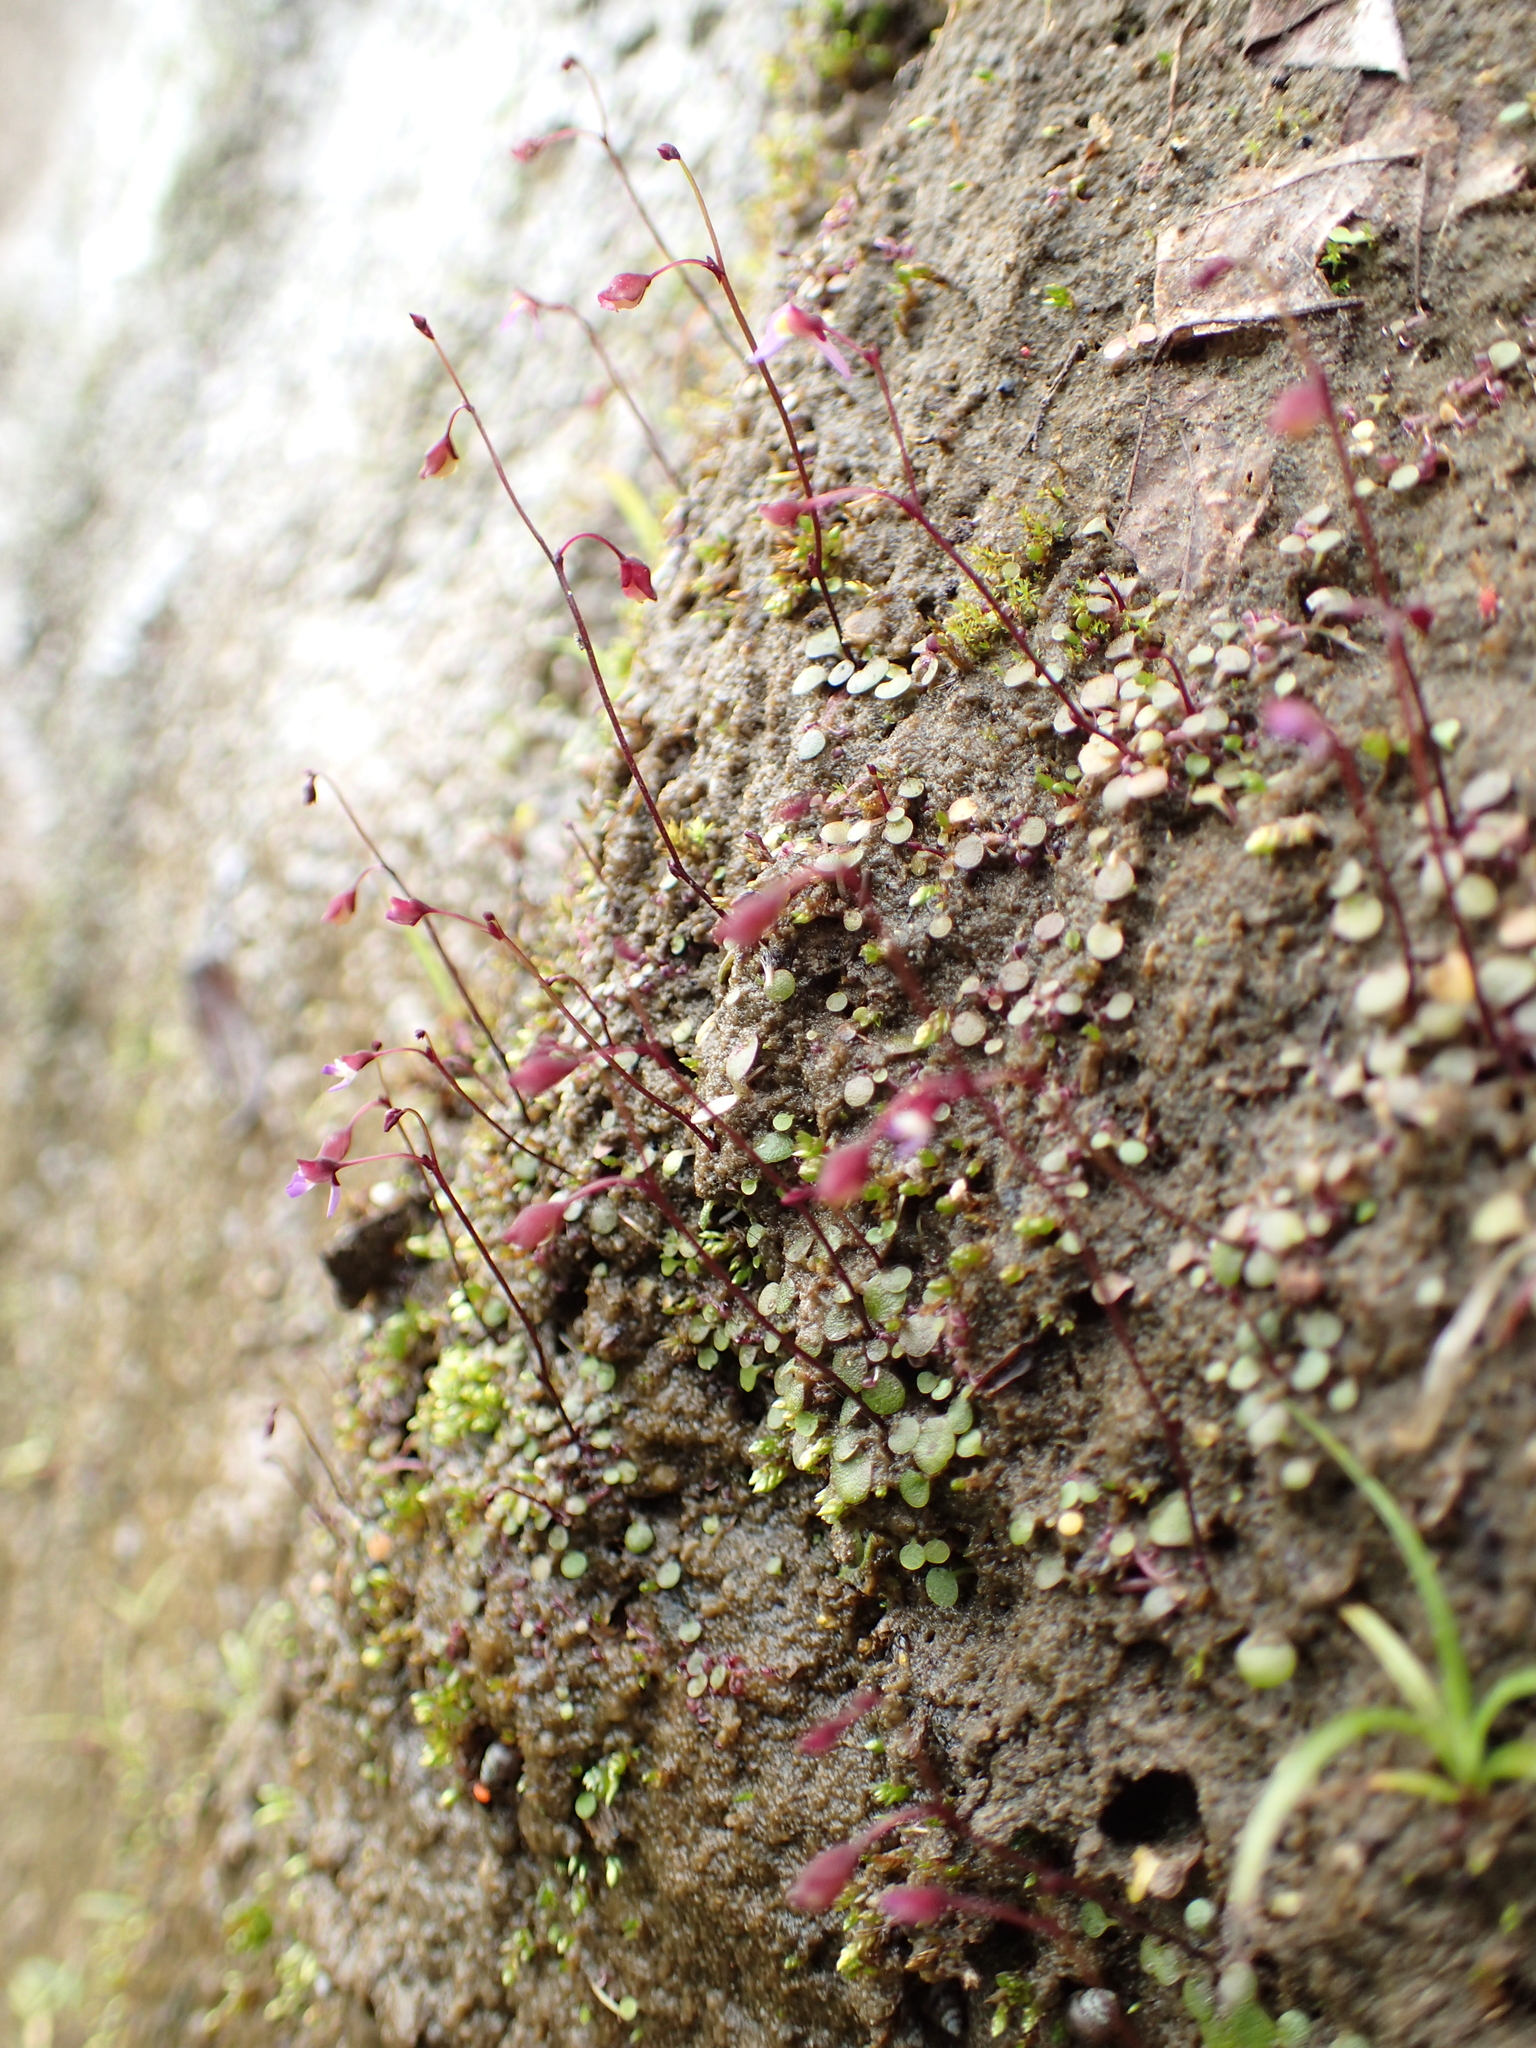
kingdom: Plantae
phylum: Tracheophyta
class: Magnoliopsida
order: Lamiales
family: Lentibulariaceae
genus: Utricularia
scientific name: Utricularia striatula
